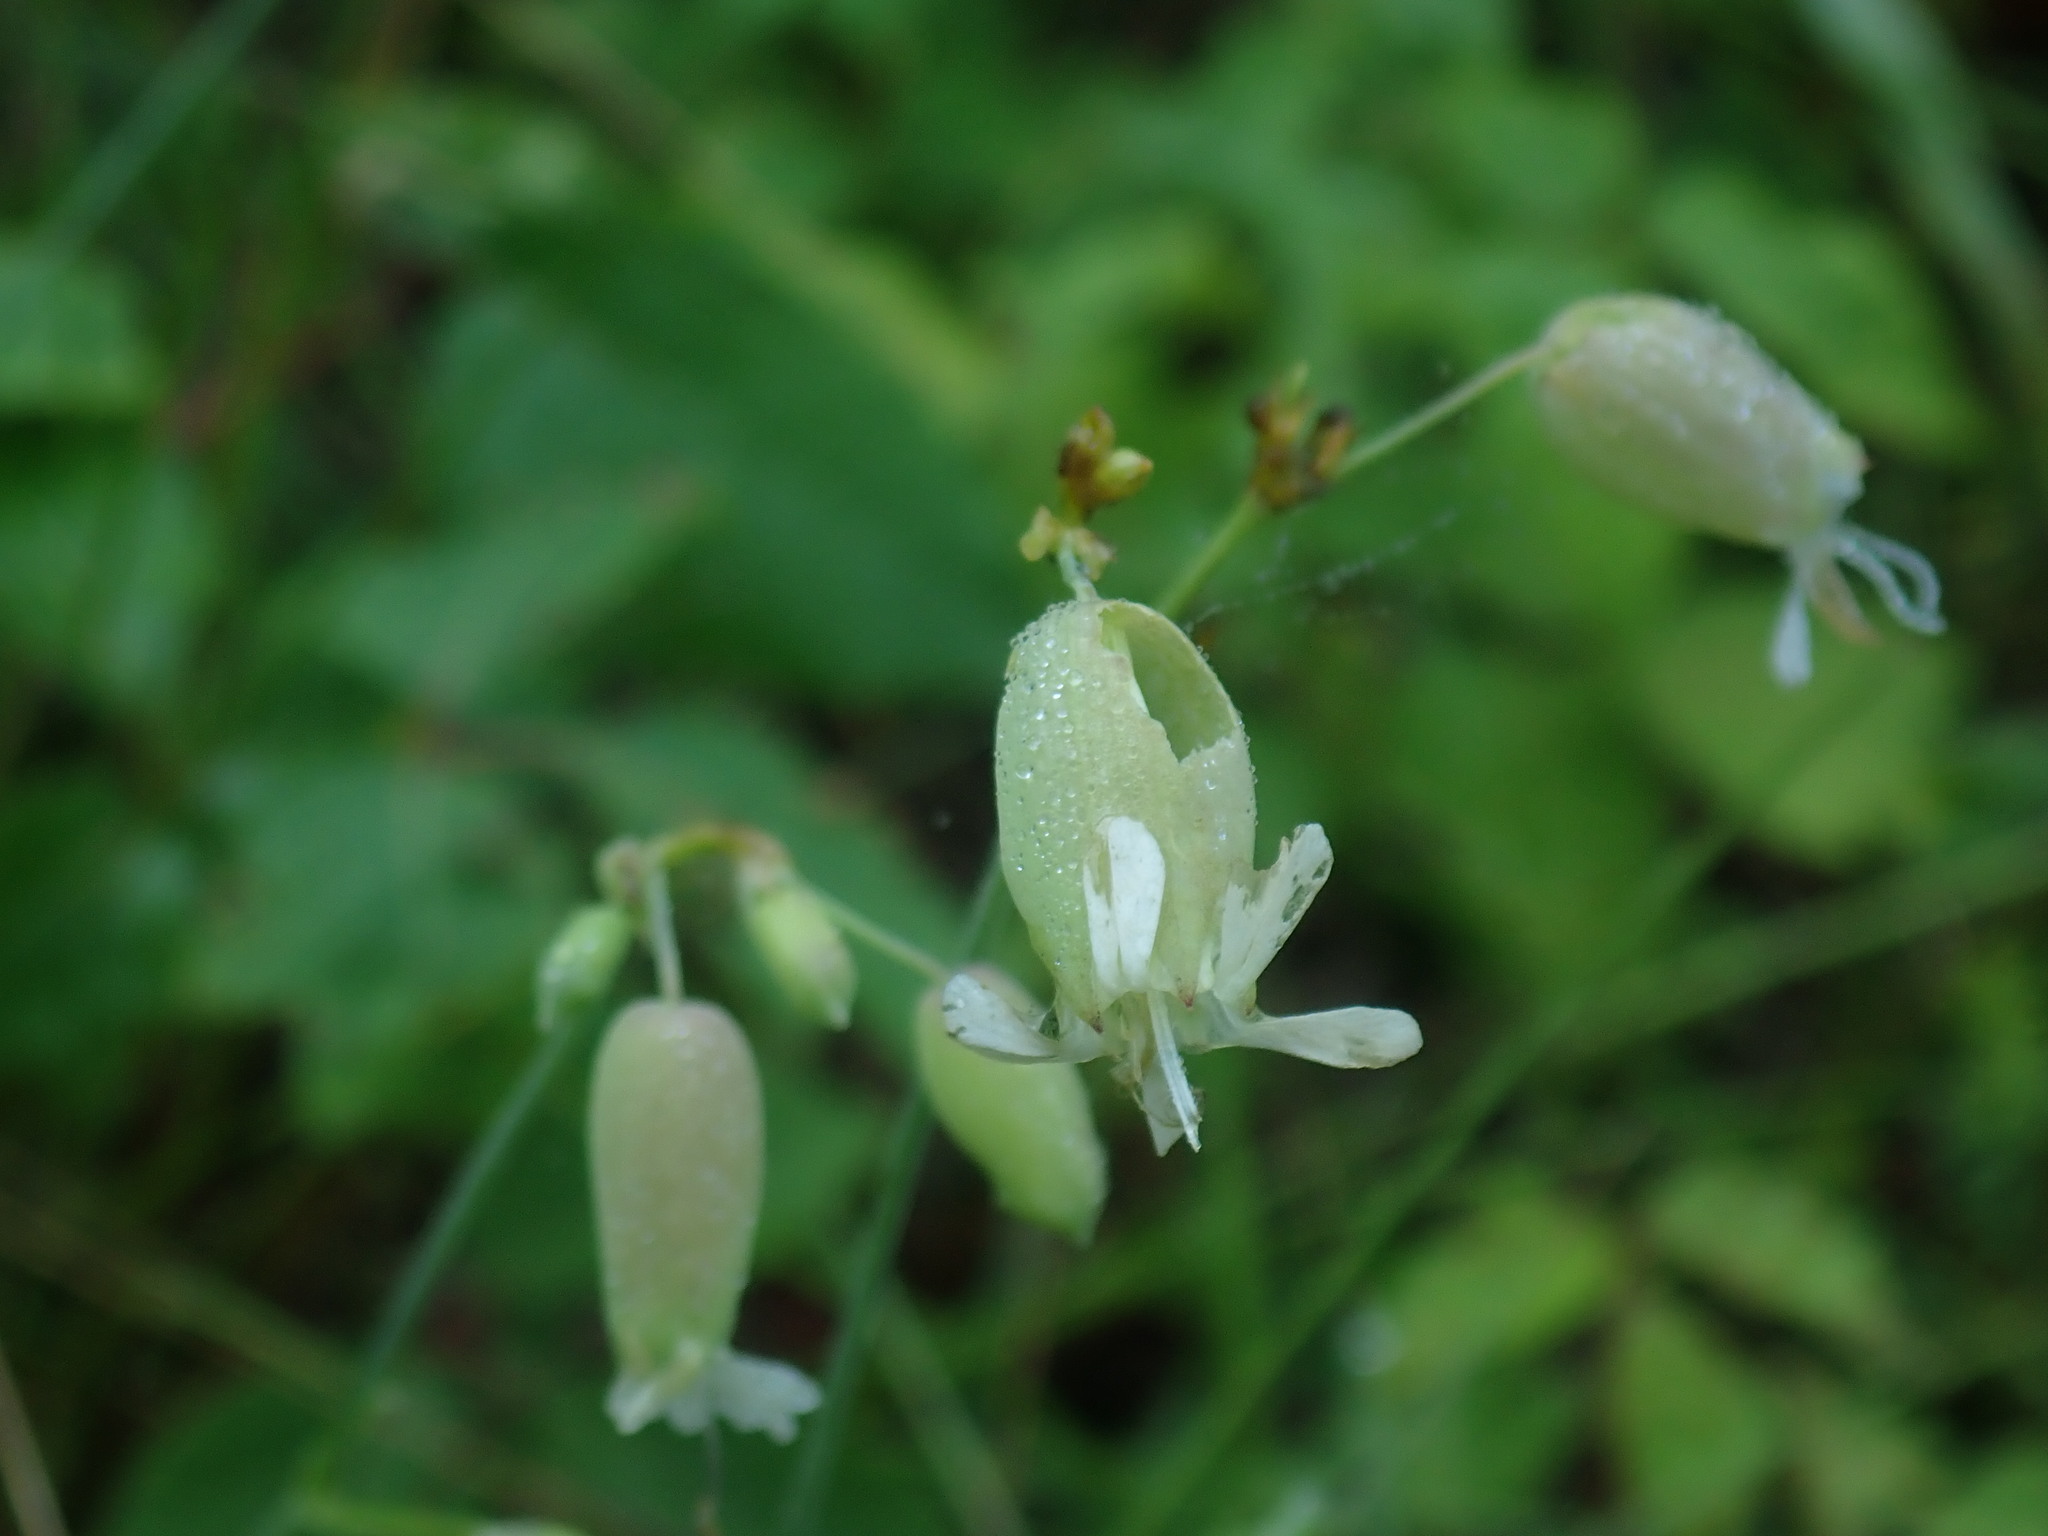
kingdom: Plantae
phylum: Tracheophyta
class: Magnoliopsida
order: Caryophyllales
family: Caryophyllaceae
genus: Silene
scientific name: Silene vulgaris
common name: Bladder campion
